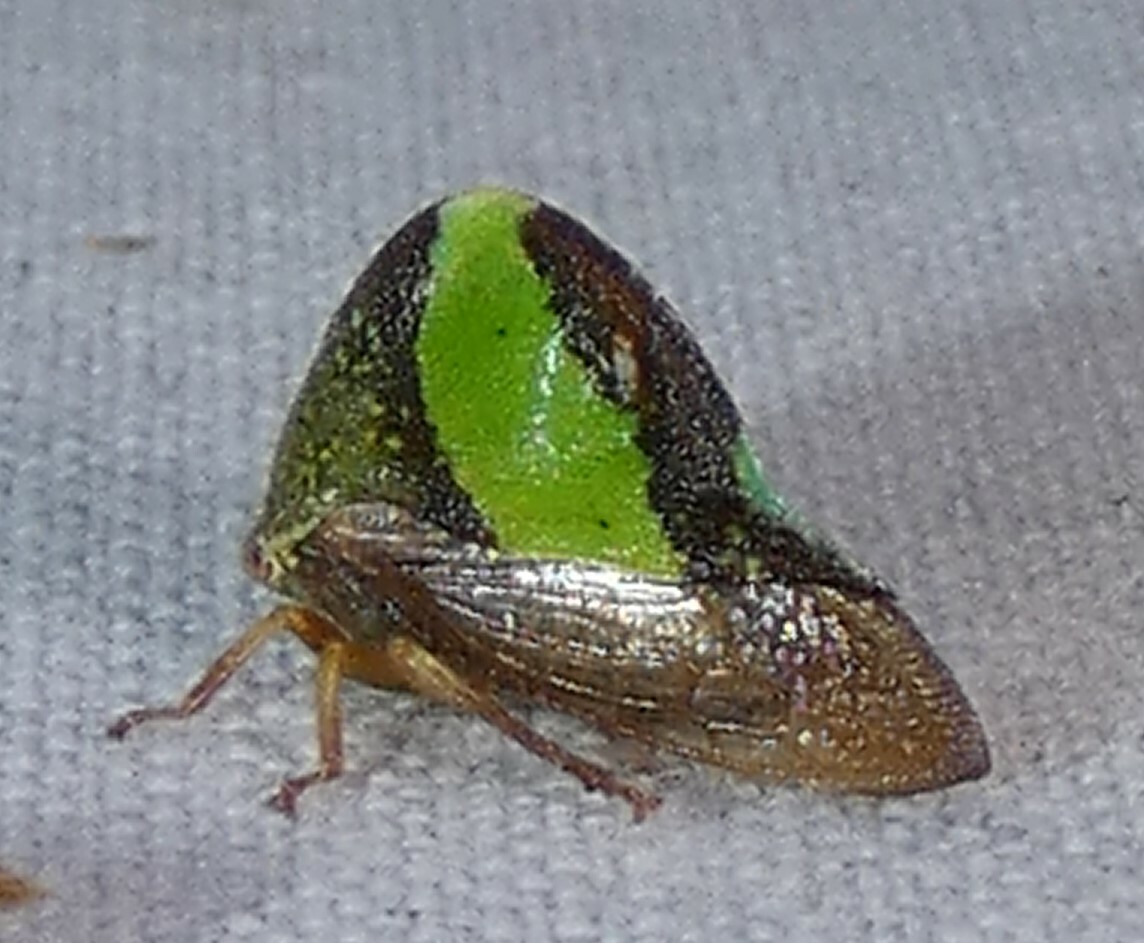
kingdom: Animalia
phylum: Arthropoda
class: Insecta
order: Hemiptera
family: Membracidae
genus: Smilia
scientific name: Smilia camelus
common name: Camel treehopper
